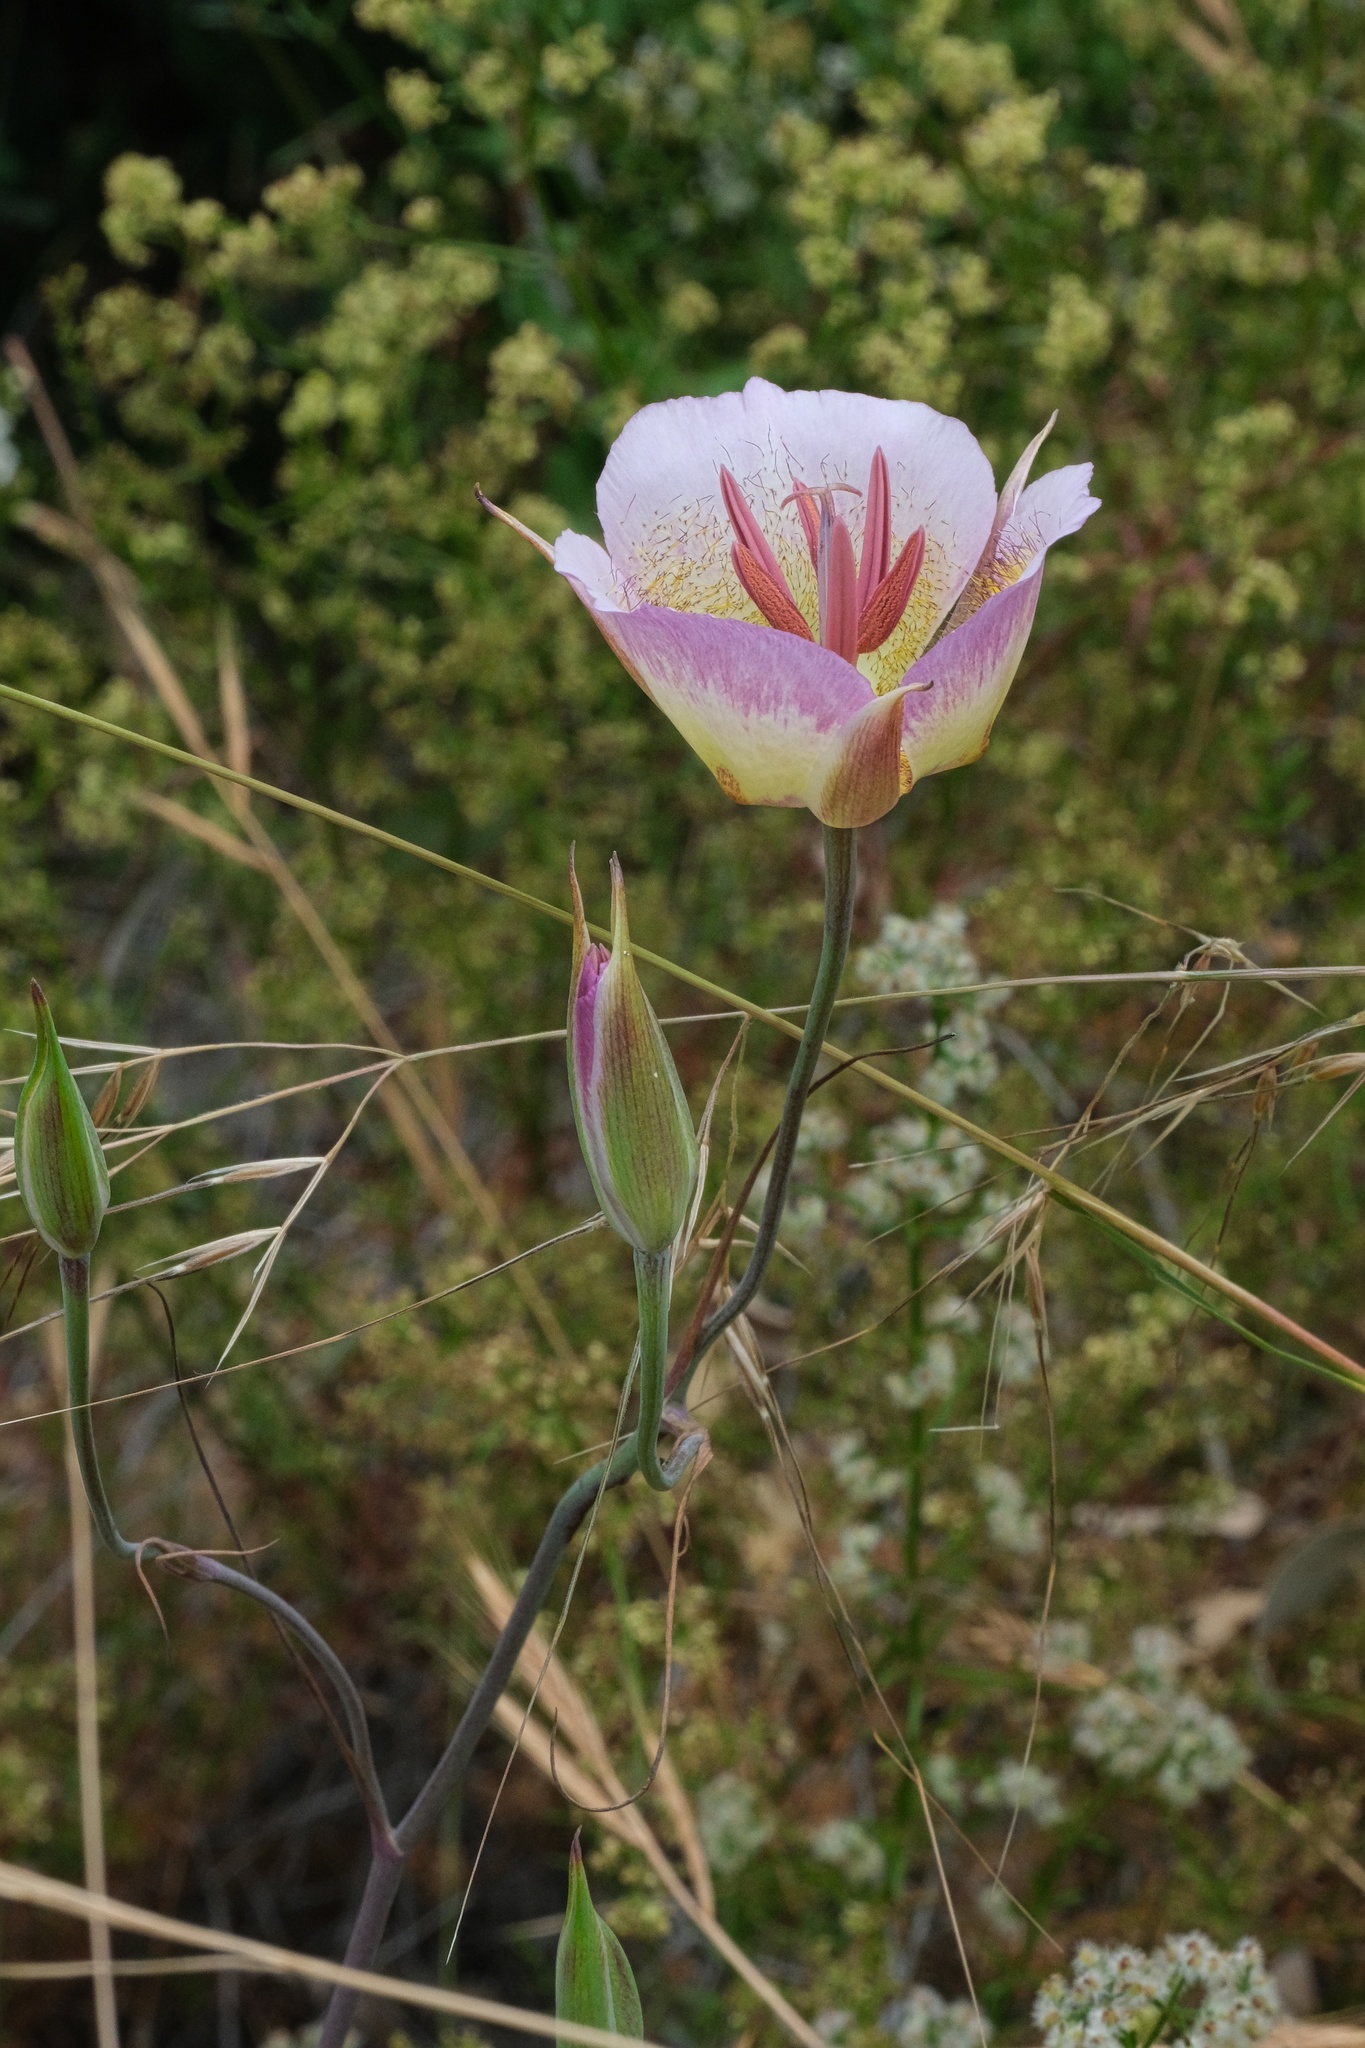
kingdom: Plantae
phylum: Tracheophyta
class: Liliopsida
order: Liliales
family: Liliaceae
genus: Calochortus
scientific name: Calochortus plummerae
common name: Plummer's mariposa-lily
